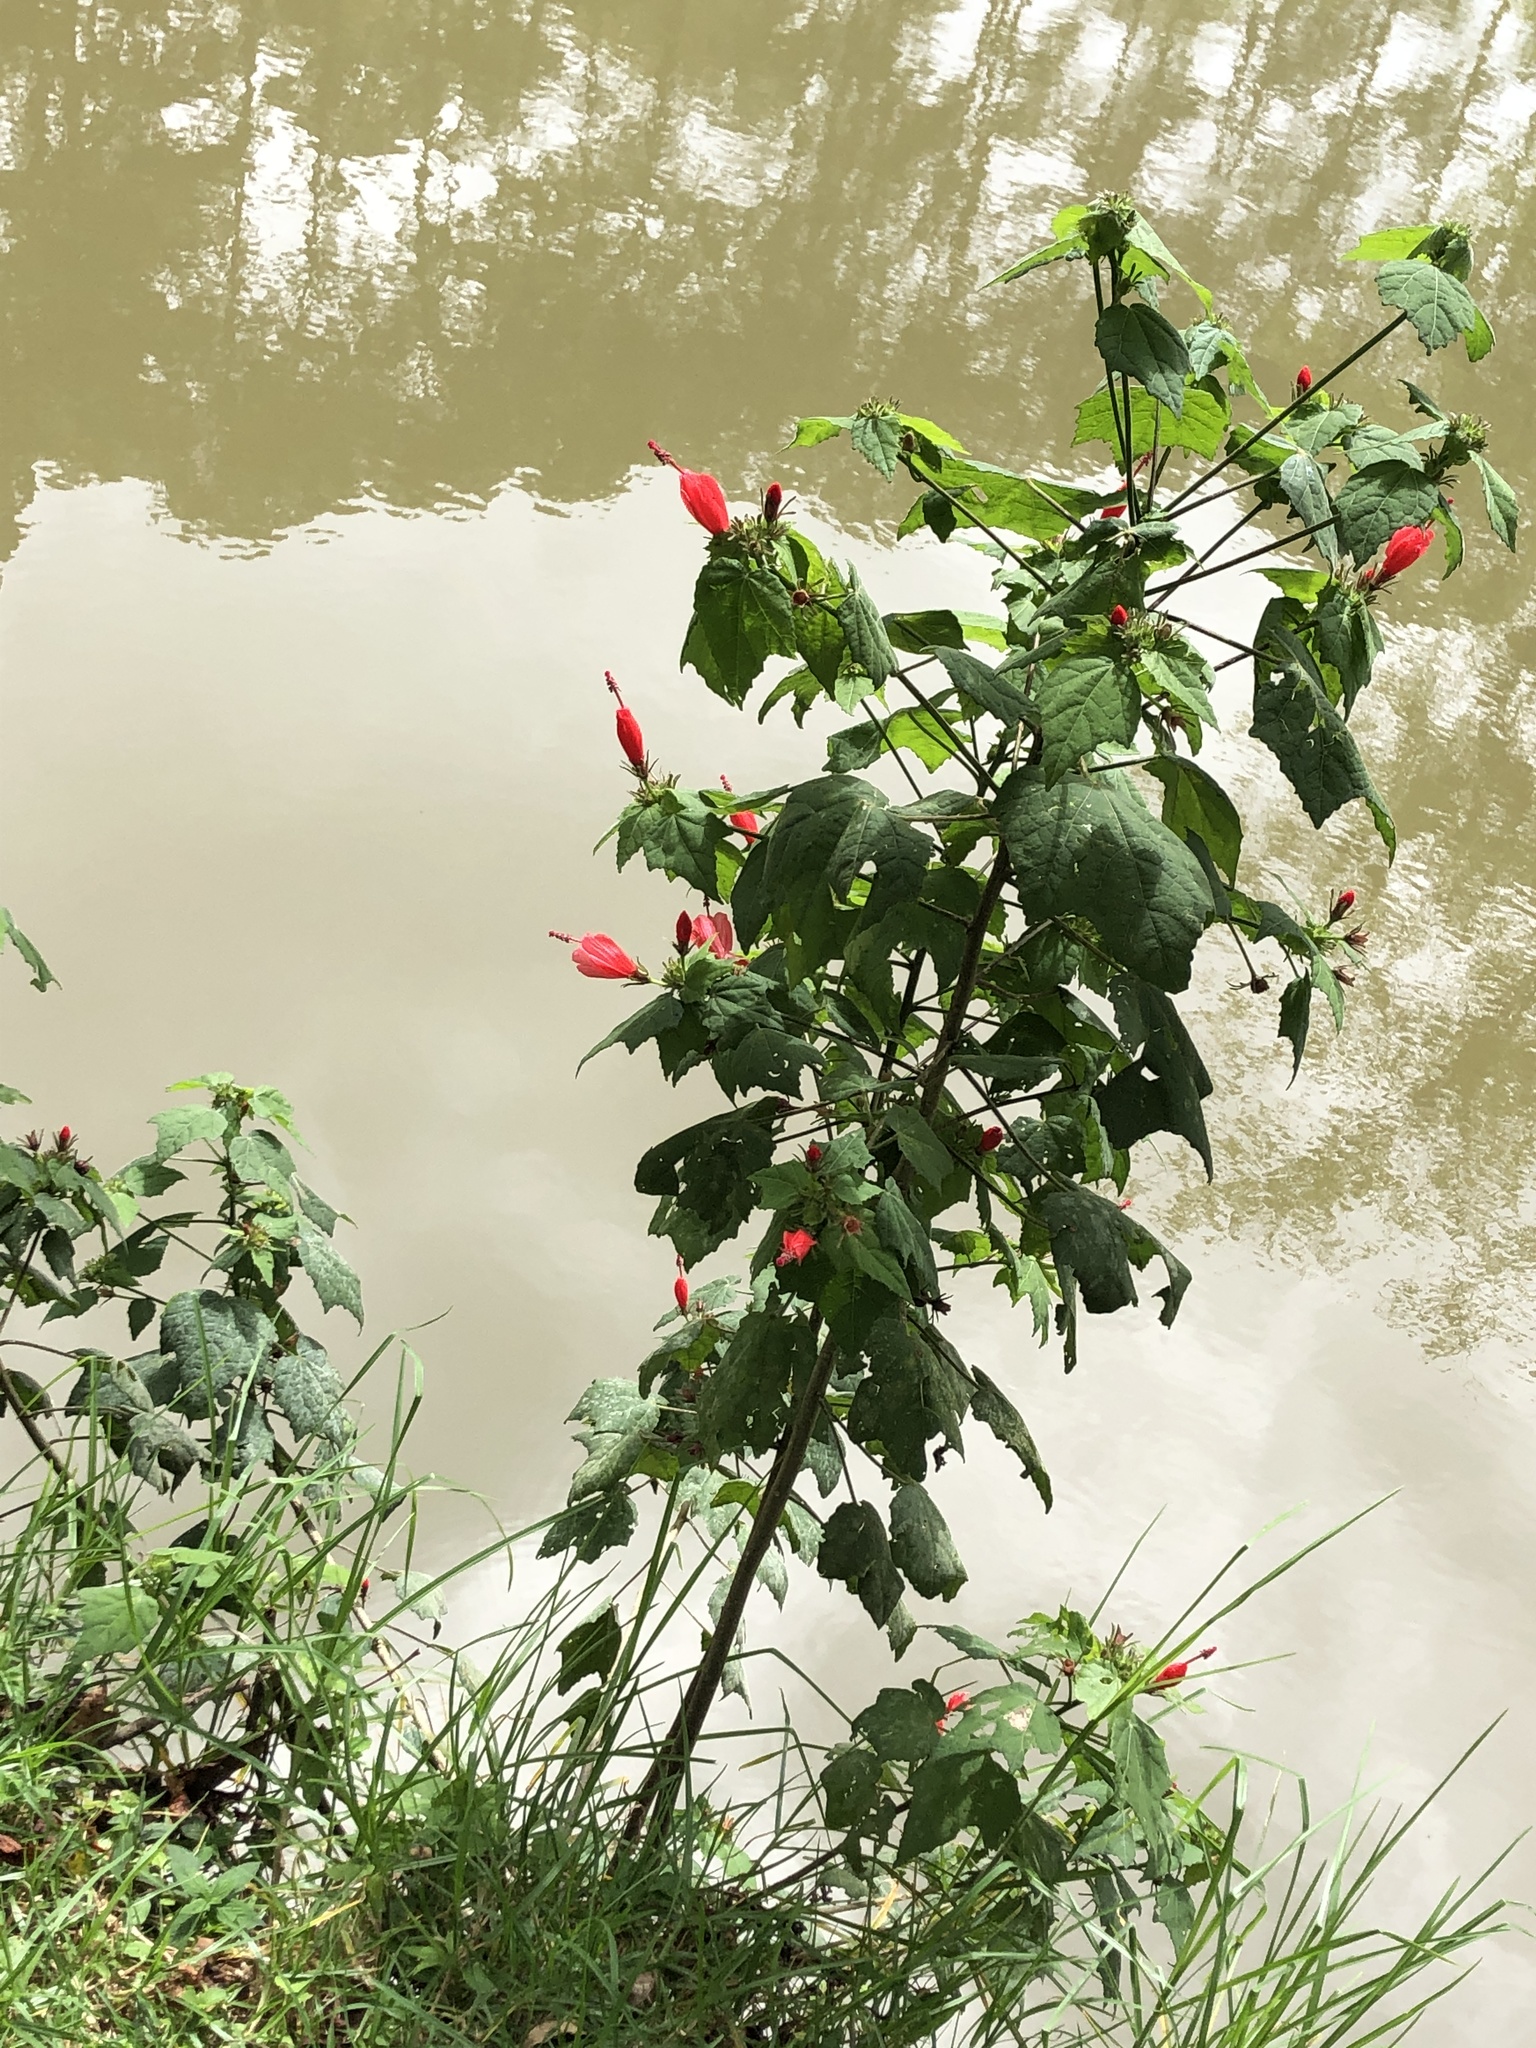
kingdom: Plantae
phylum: Tracheophyta
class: Magnoliopsida
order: Malvales
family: Malvaceae
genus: Malvaviscus
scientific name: Malvaviscus arboreus
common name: Wax mallow
